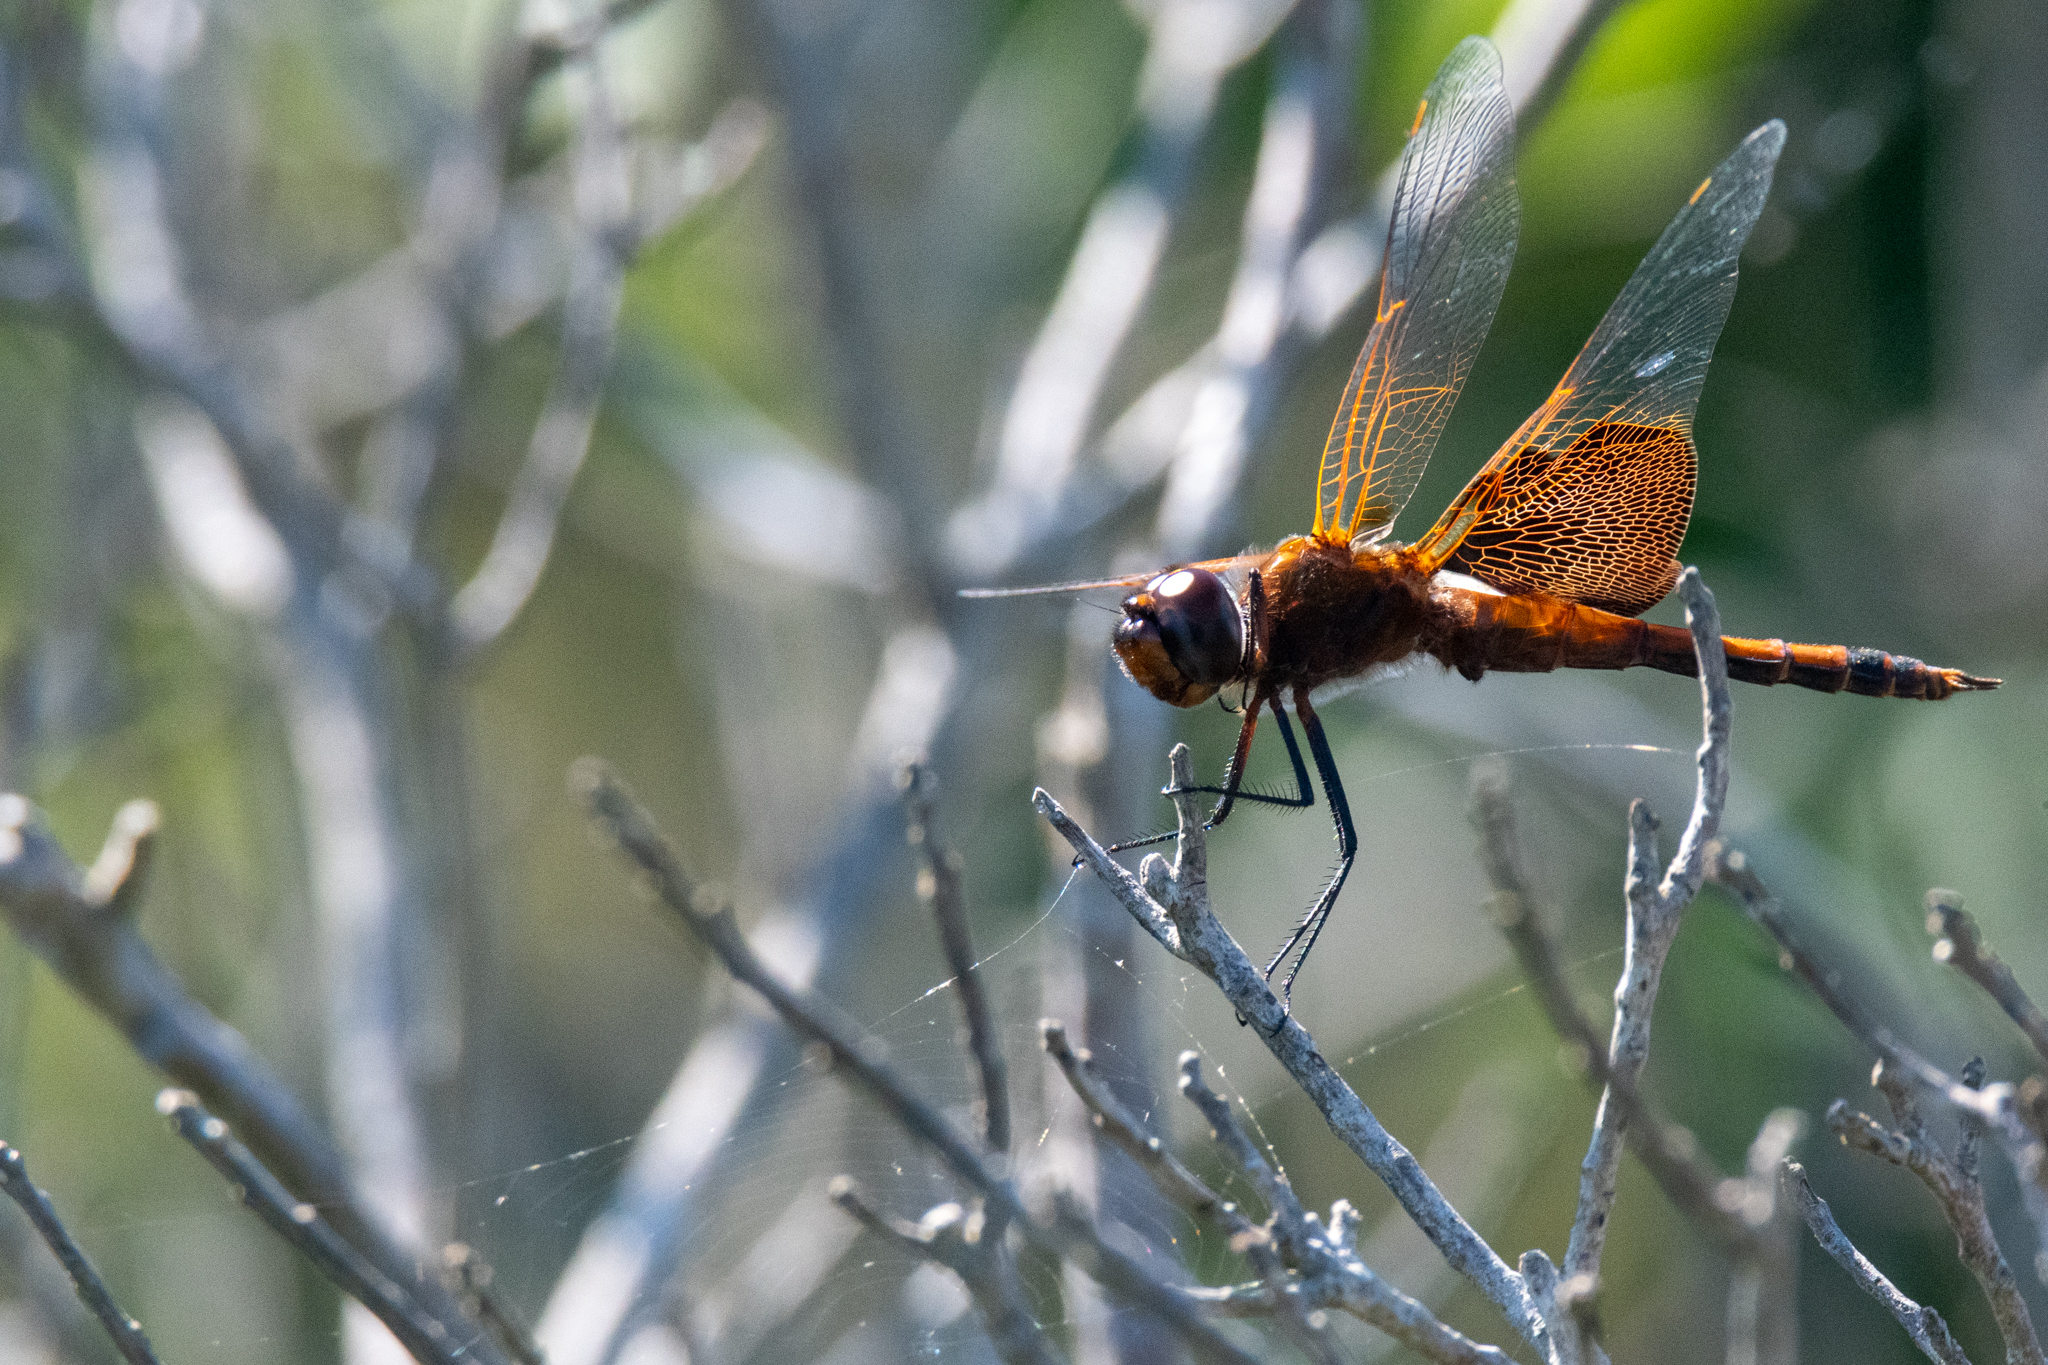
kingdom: Animalia
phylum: Arthropoda
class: Insecta
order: Odonata
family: Libellulidae
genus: Tramea
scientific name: Tramea carolina
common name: Carolina saddlebags
